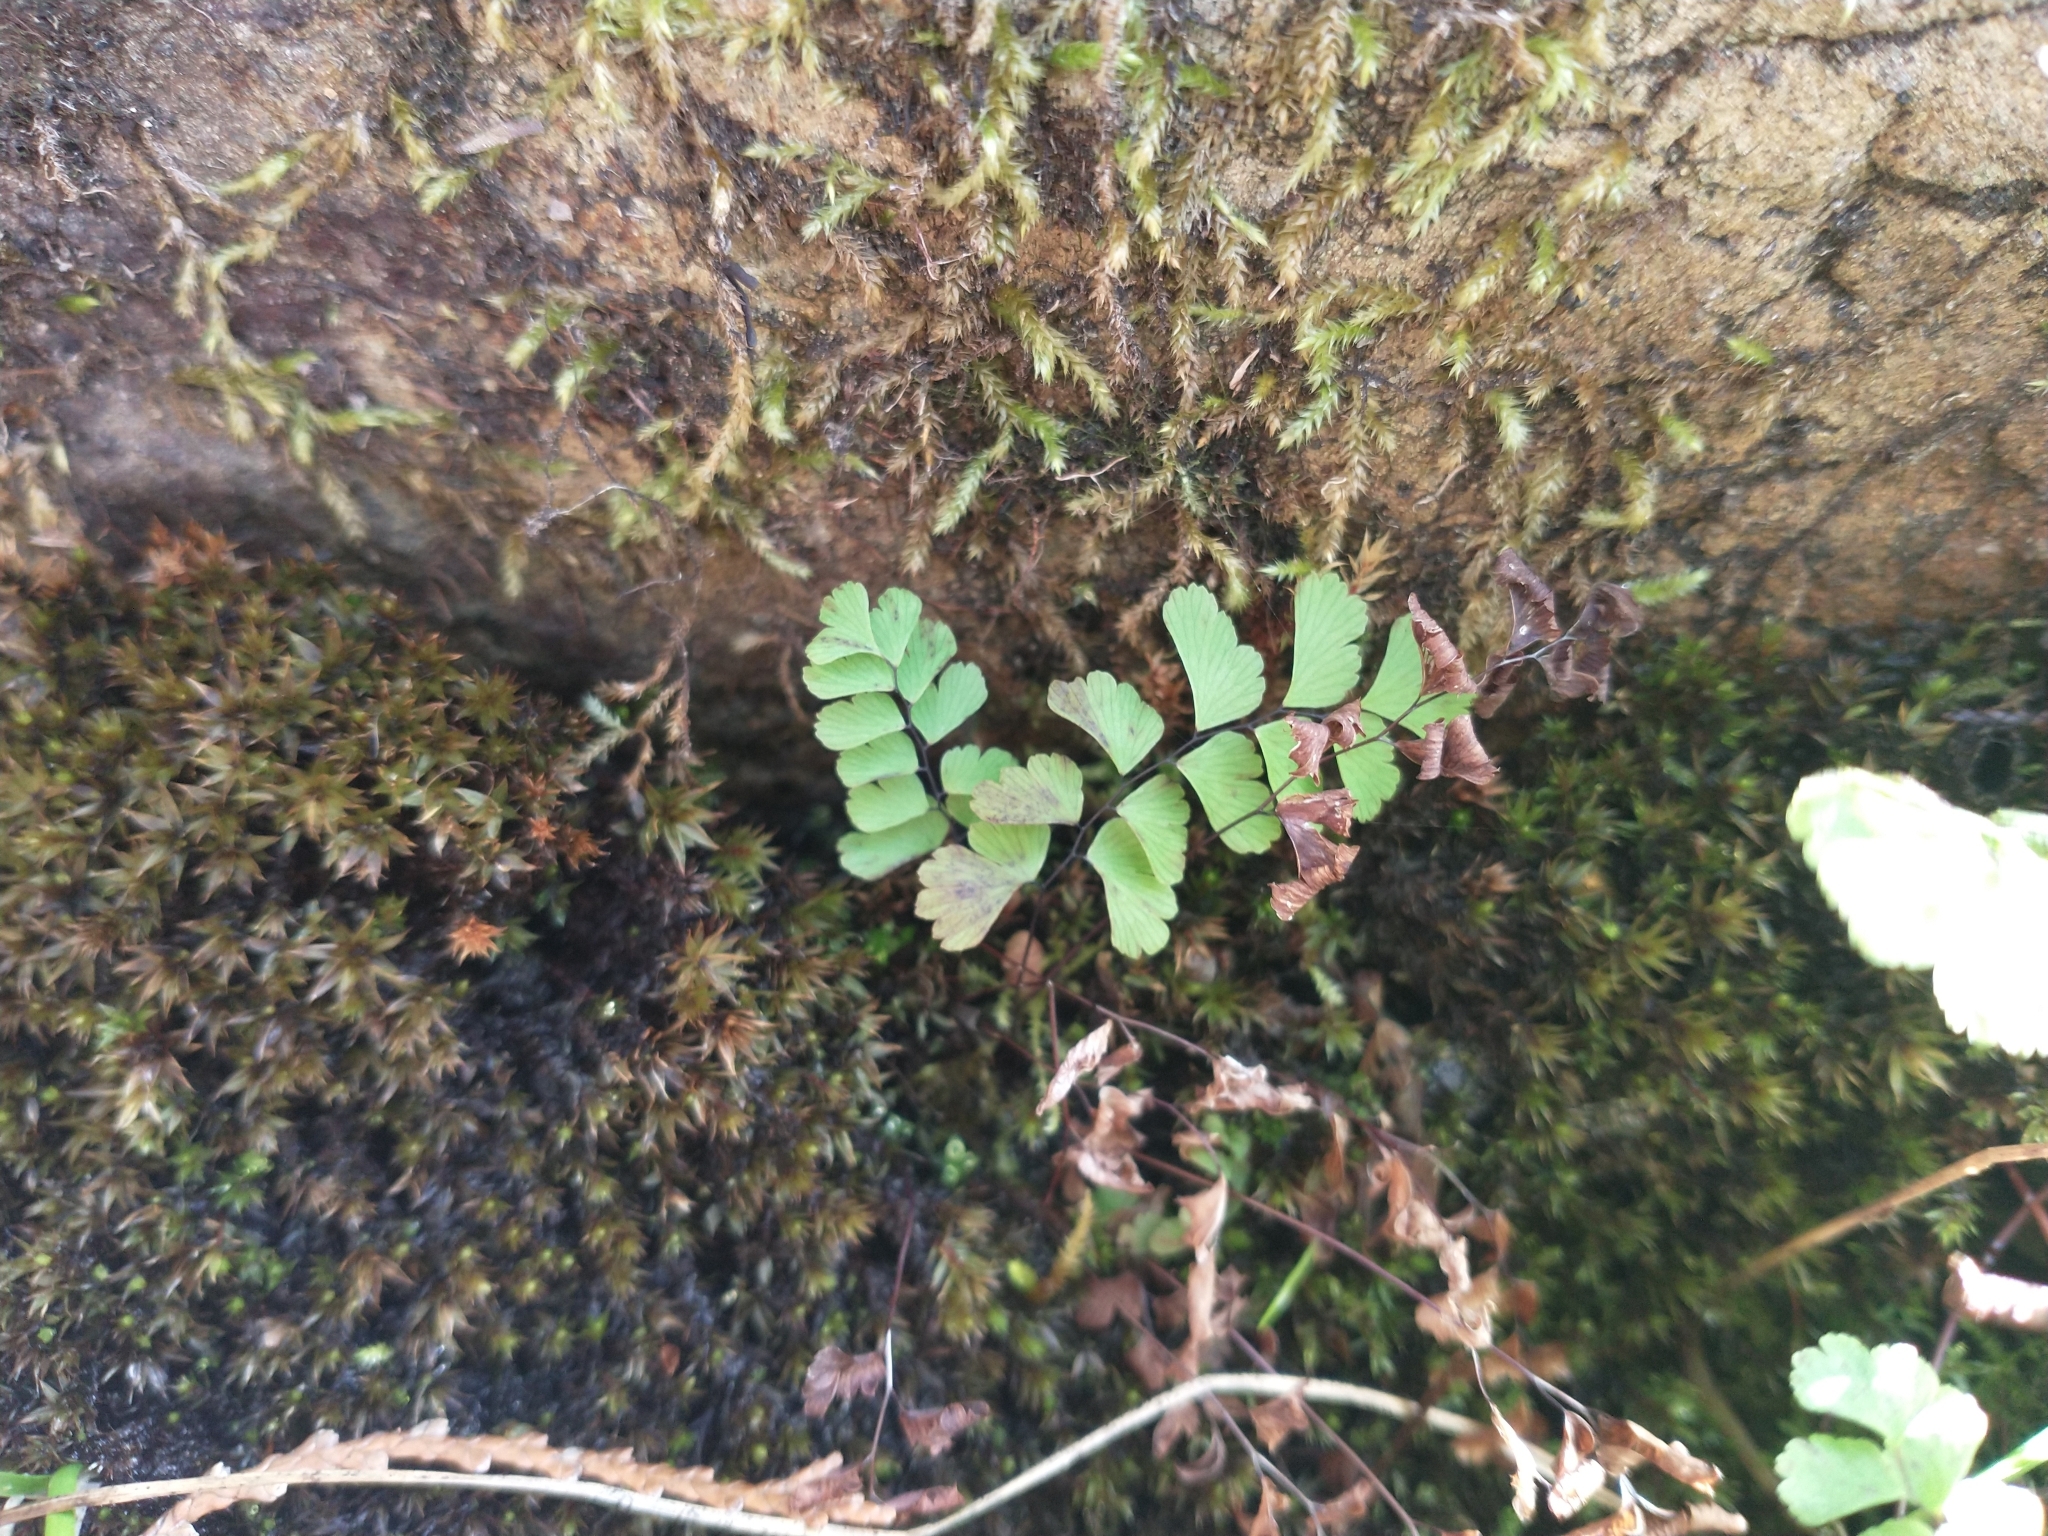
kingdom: Plantae
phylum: Tracheophyta
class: Polypodiopsida
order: Polypodiales
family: Pteridaceae
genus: Adiantum
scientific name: Adiantum aleuticum
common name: Aleutian maidenhair fern
